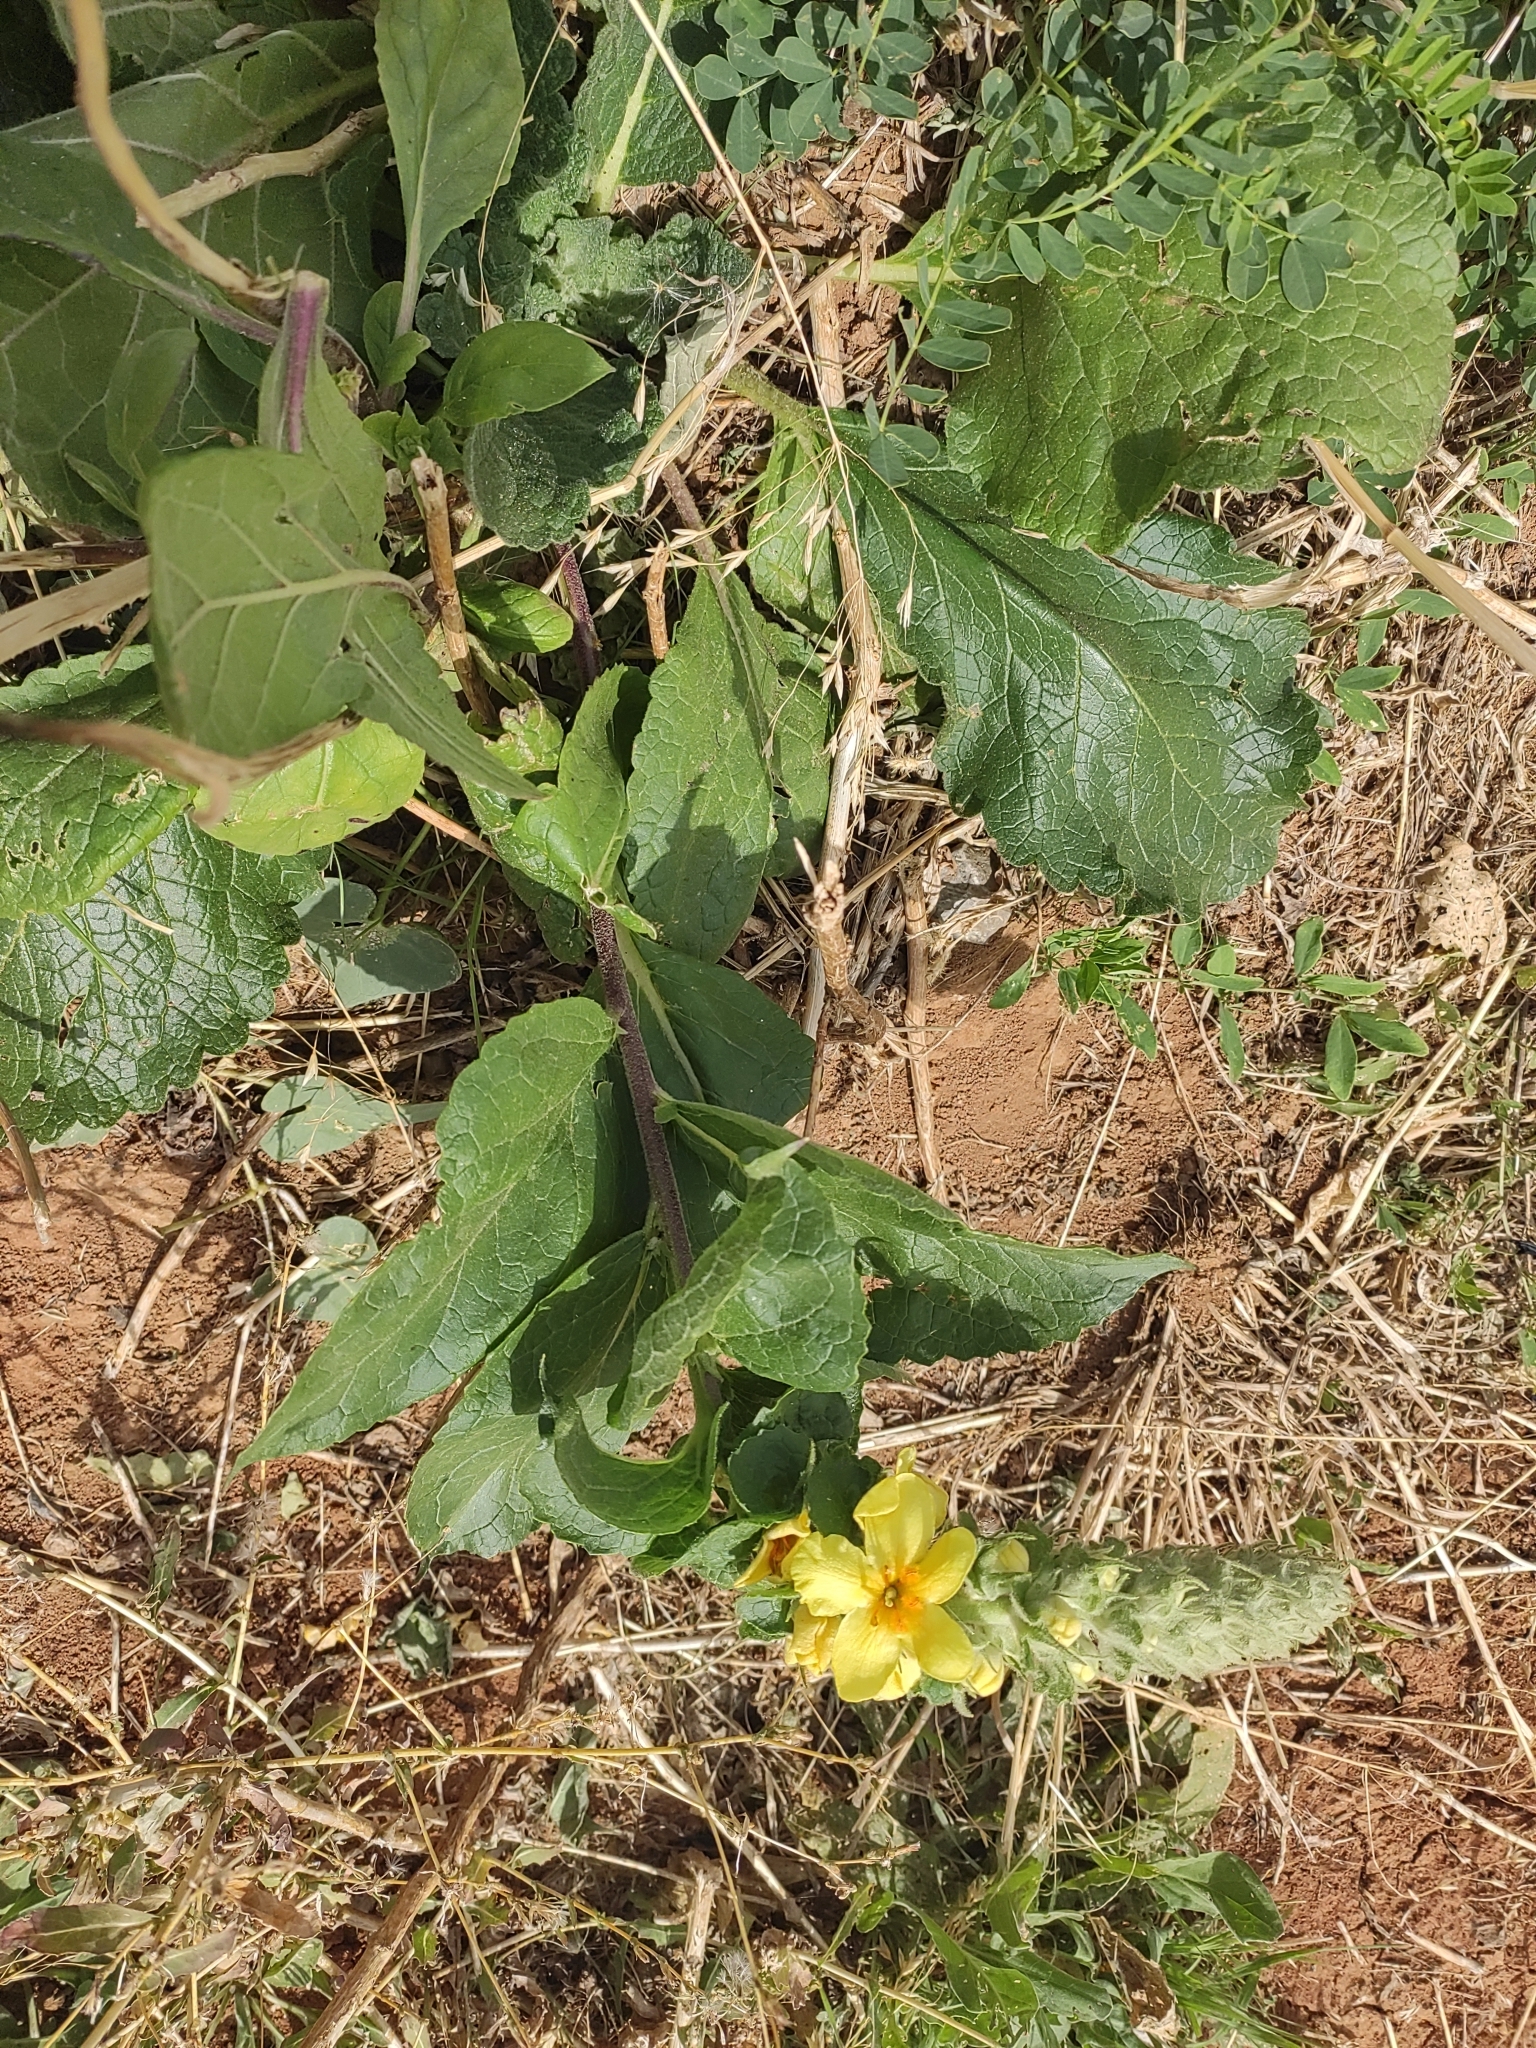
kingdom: Plantae
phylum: Tracheophyta
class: Magnoliopsida
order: Lamiales
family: Scrophulariaceae
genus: Verbascum
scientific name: Verbascum ovalifolium
